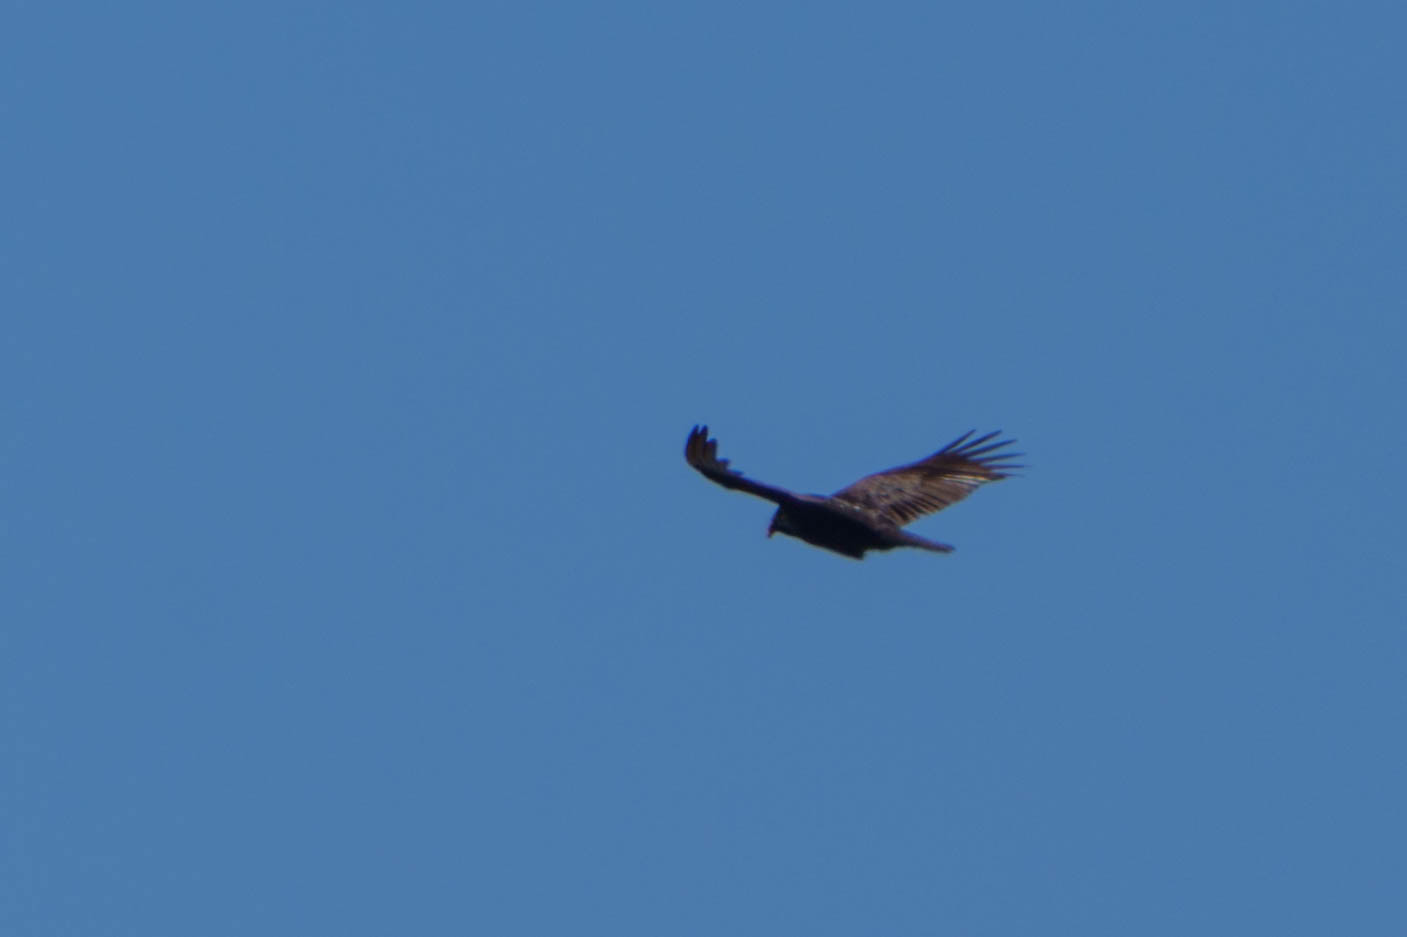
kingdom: Animalia
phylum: Chordata
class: Aves
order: Accipitriformes
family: Cathartidae
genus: Cathartes
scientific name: Cathartes aura
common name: Turkey vulture
